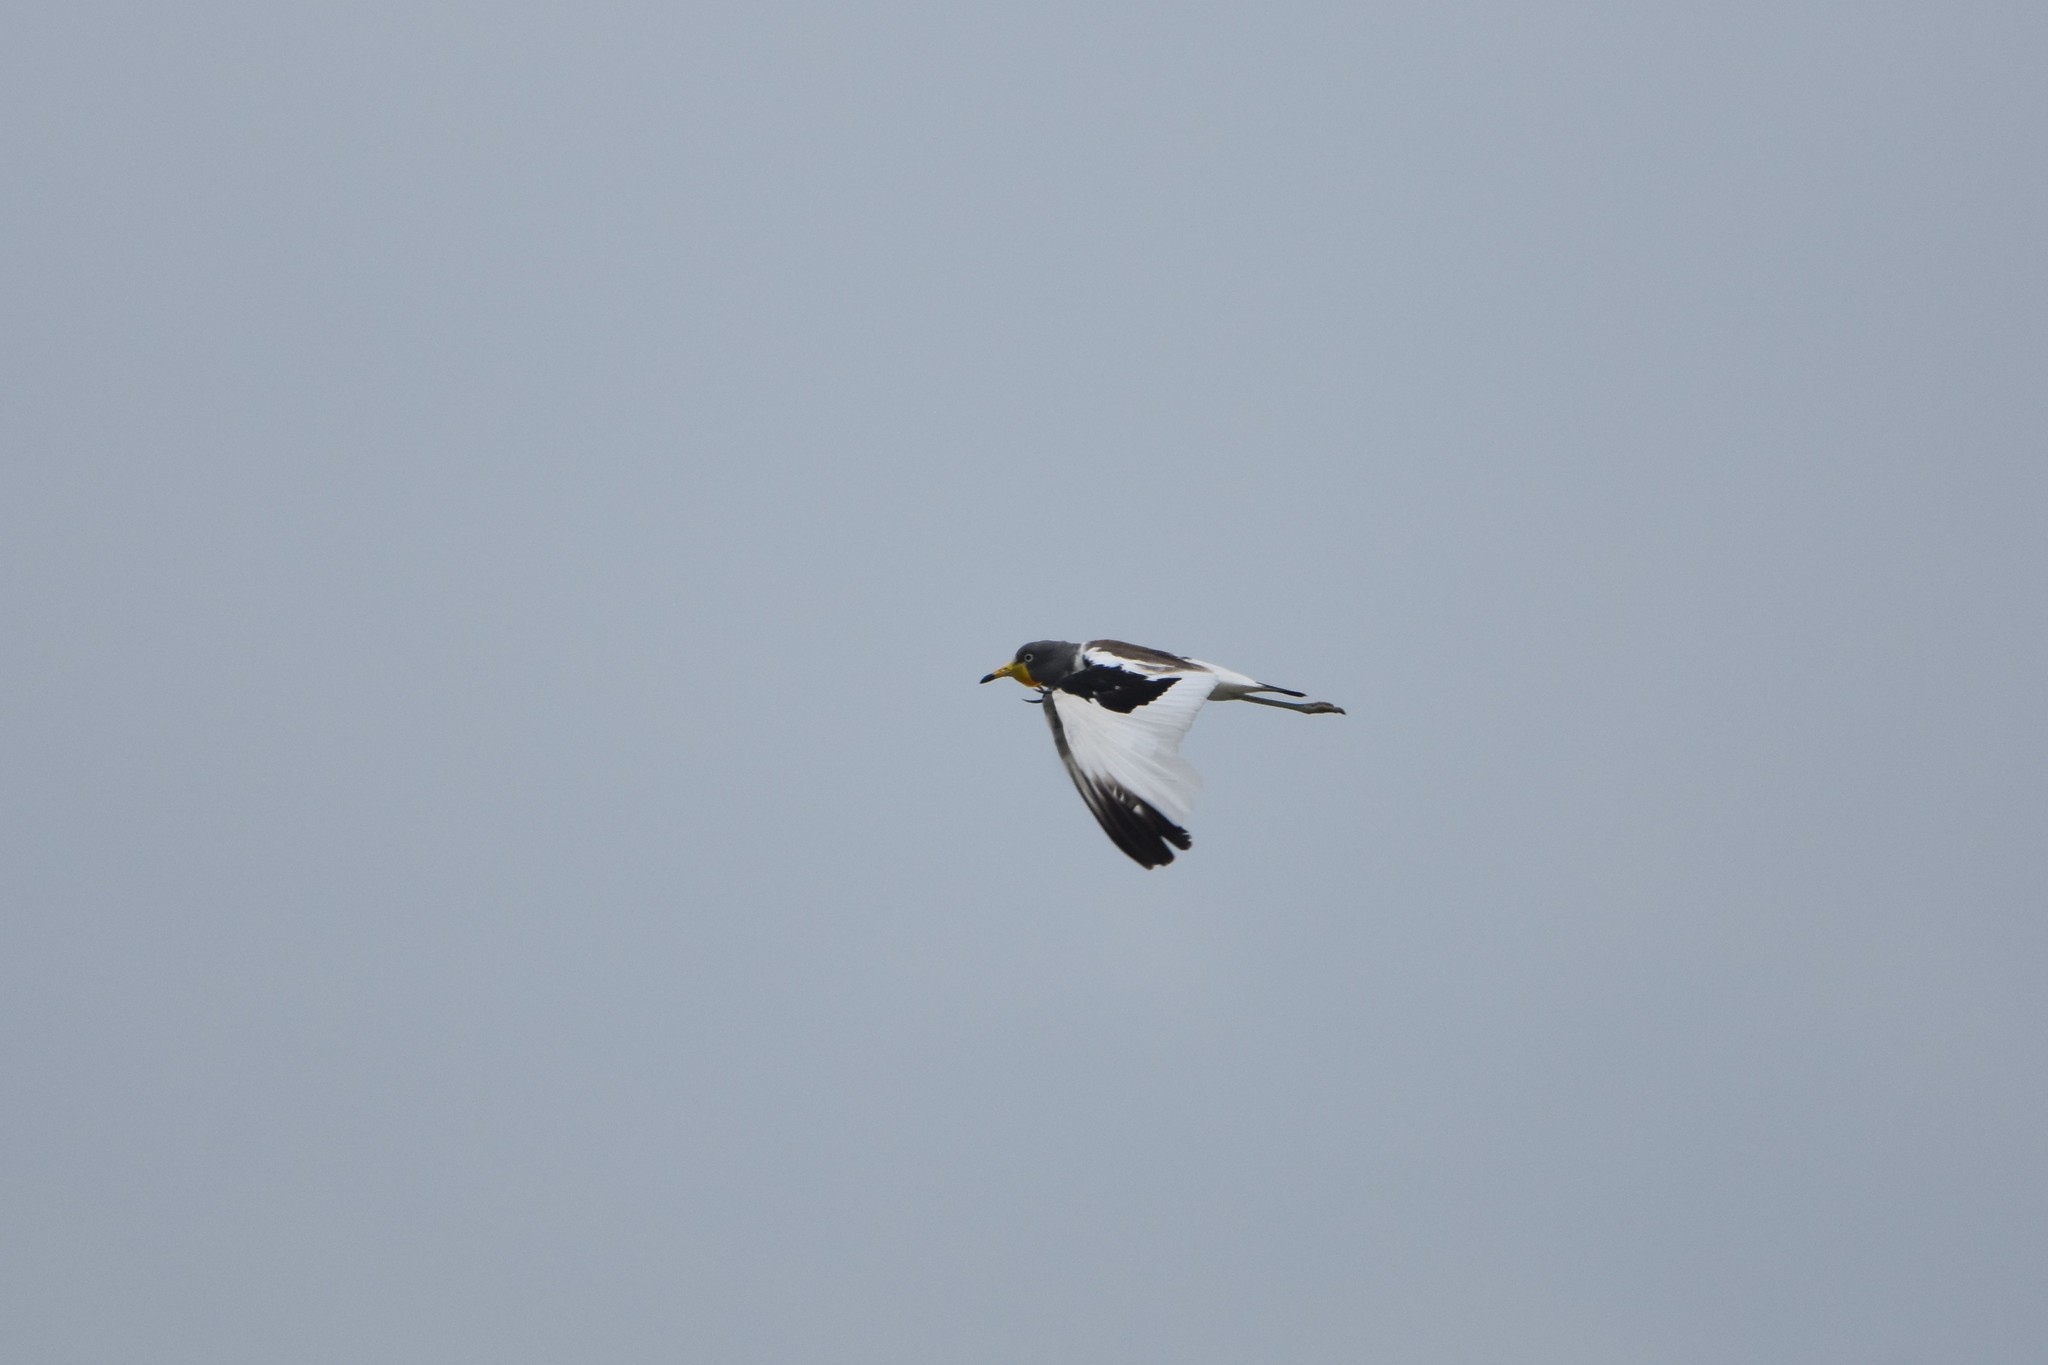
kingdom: Animalia
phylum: Chordata
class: Aves
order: Charadriiformes
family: Charadriidae
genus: Vanellus
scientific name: Vanellus albiceps
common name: White-crowned lapwing
